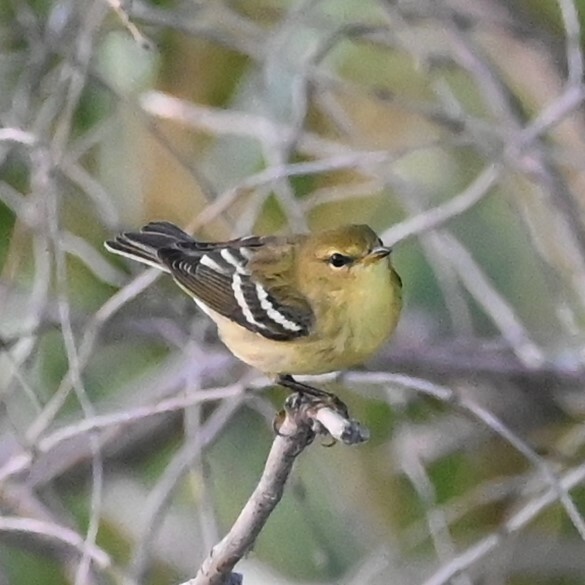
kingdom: Animalia
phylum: Chordata
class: Aves
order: Passeriformes
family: Parulidae
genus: Setophaga
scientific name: Setophaga striata
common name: Blackpoll warbler
